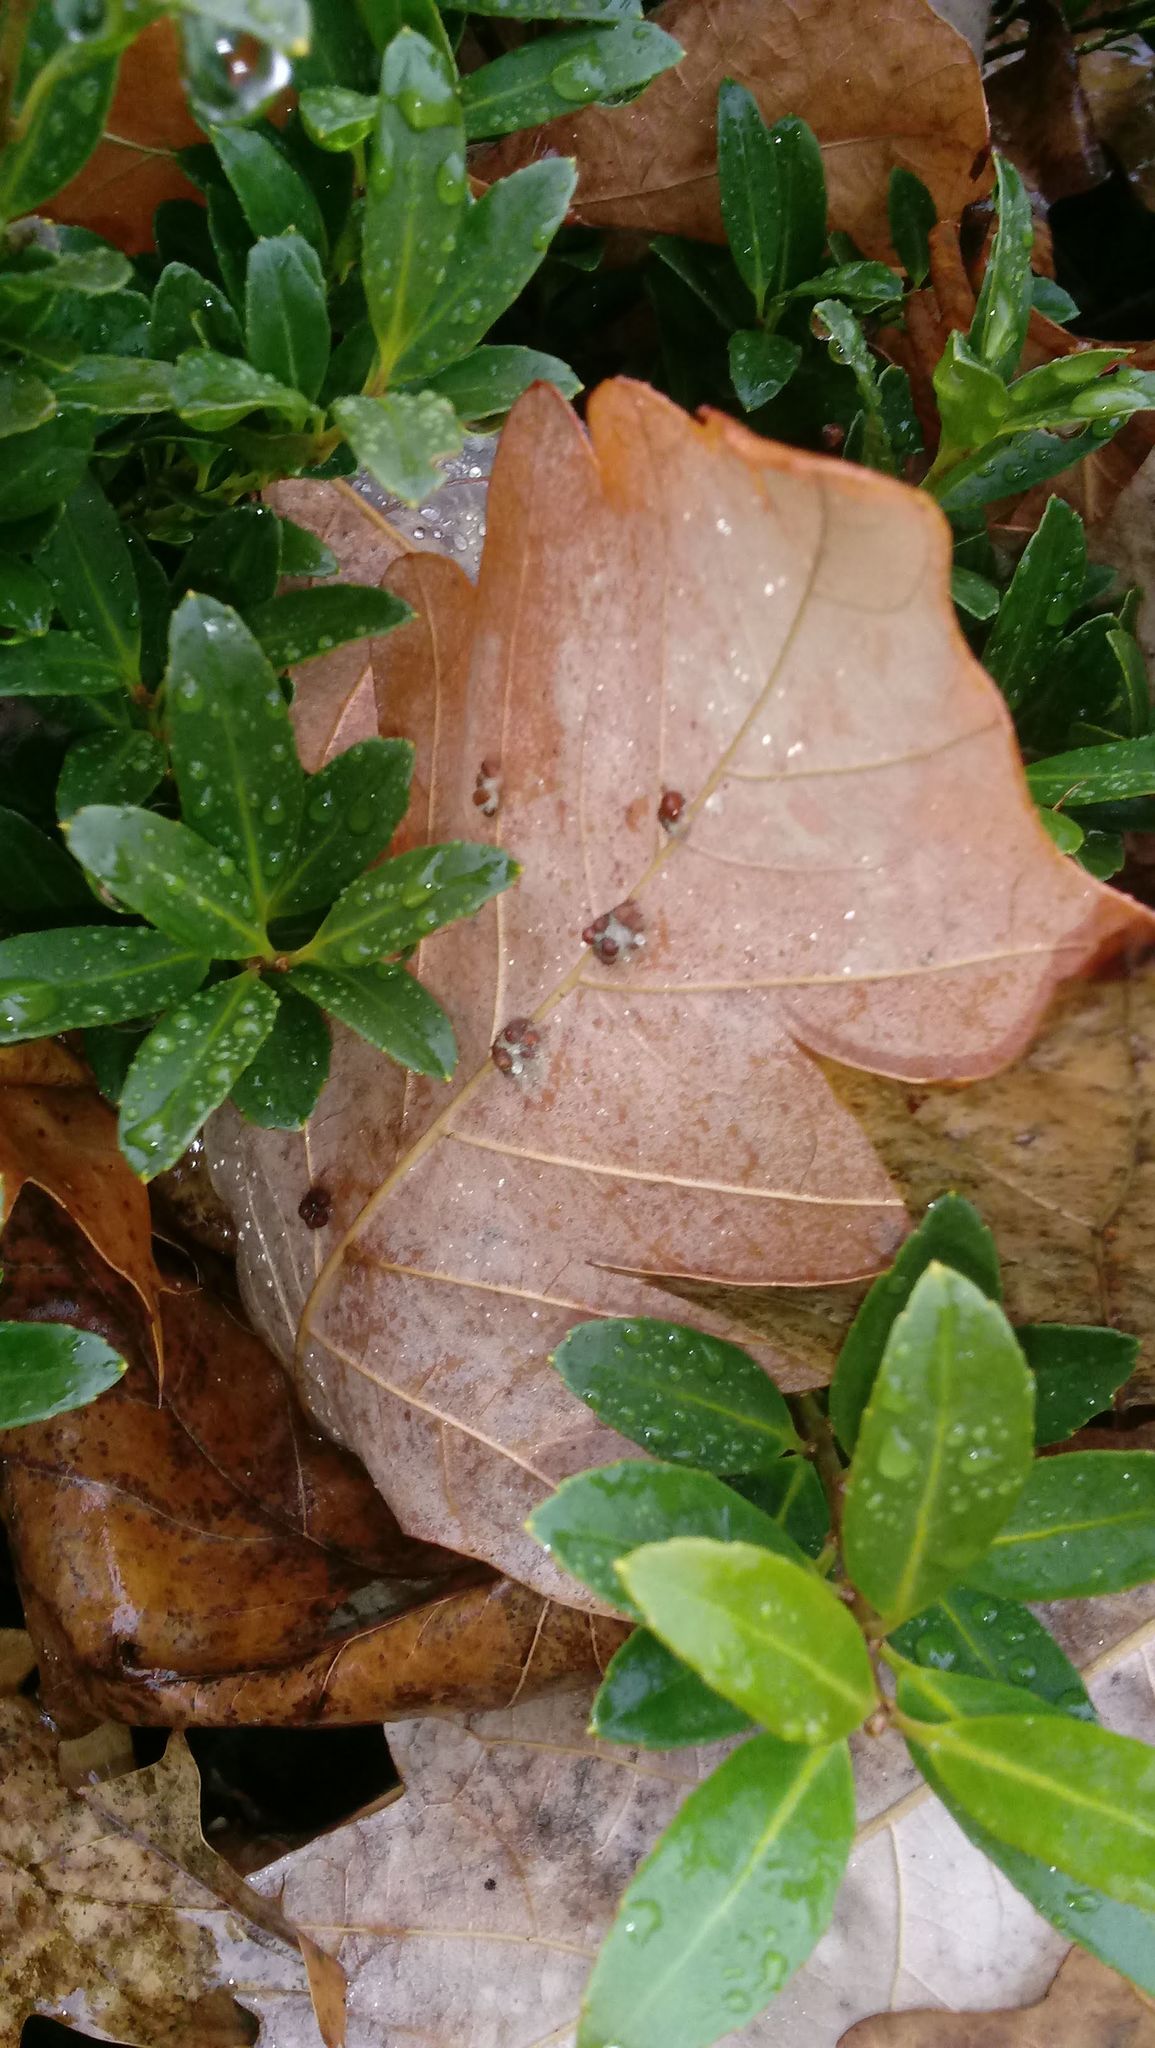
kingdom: Animalia
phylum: Arthropoda
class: Insecta
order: Hymenoptera
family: Cynipidae
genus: Andricus
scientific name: Andricus Druon ignotum
